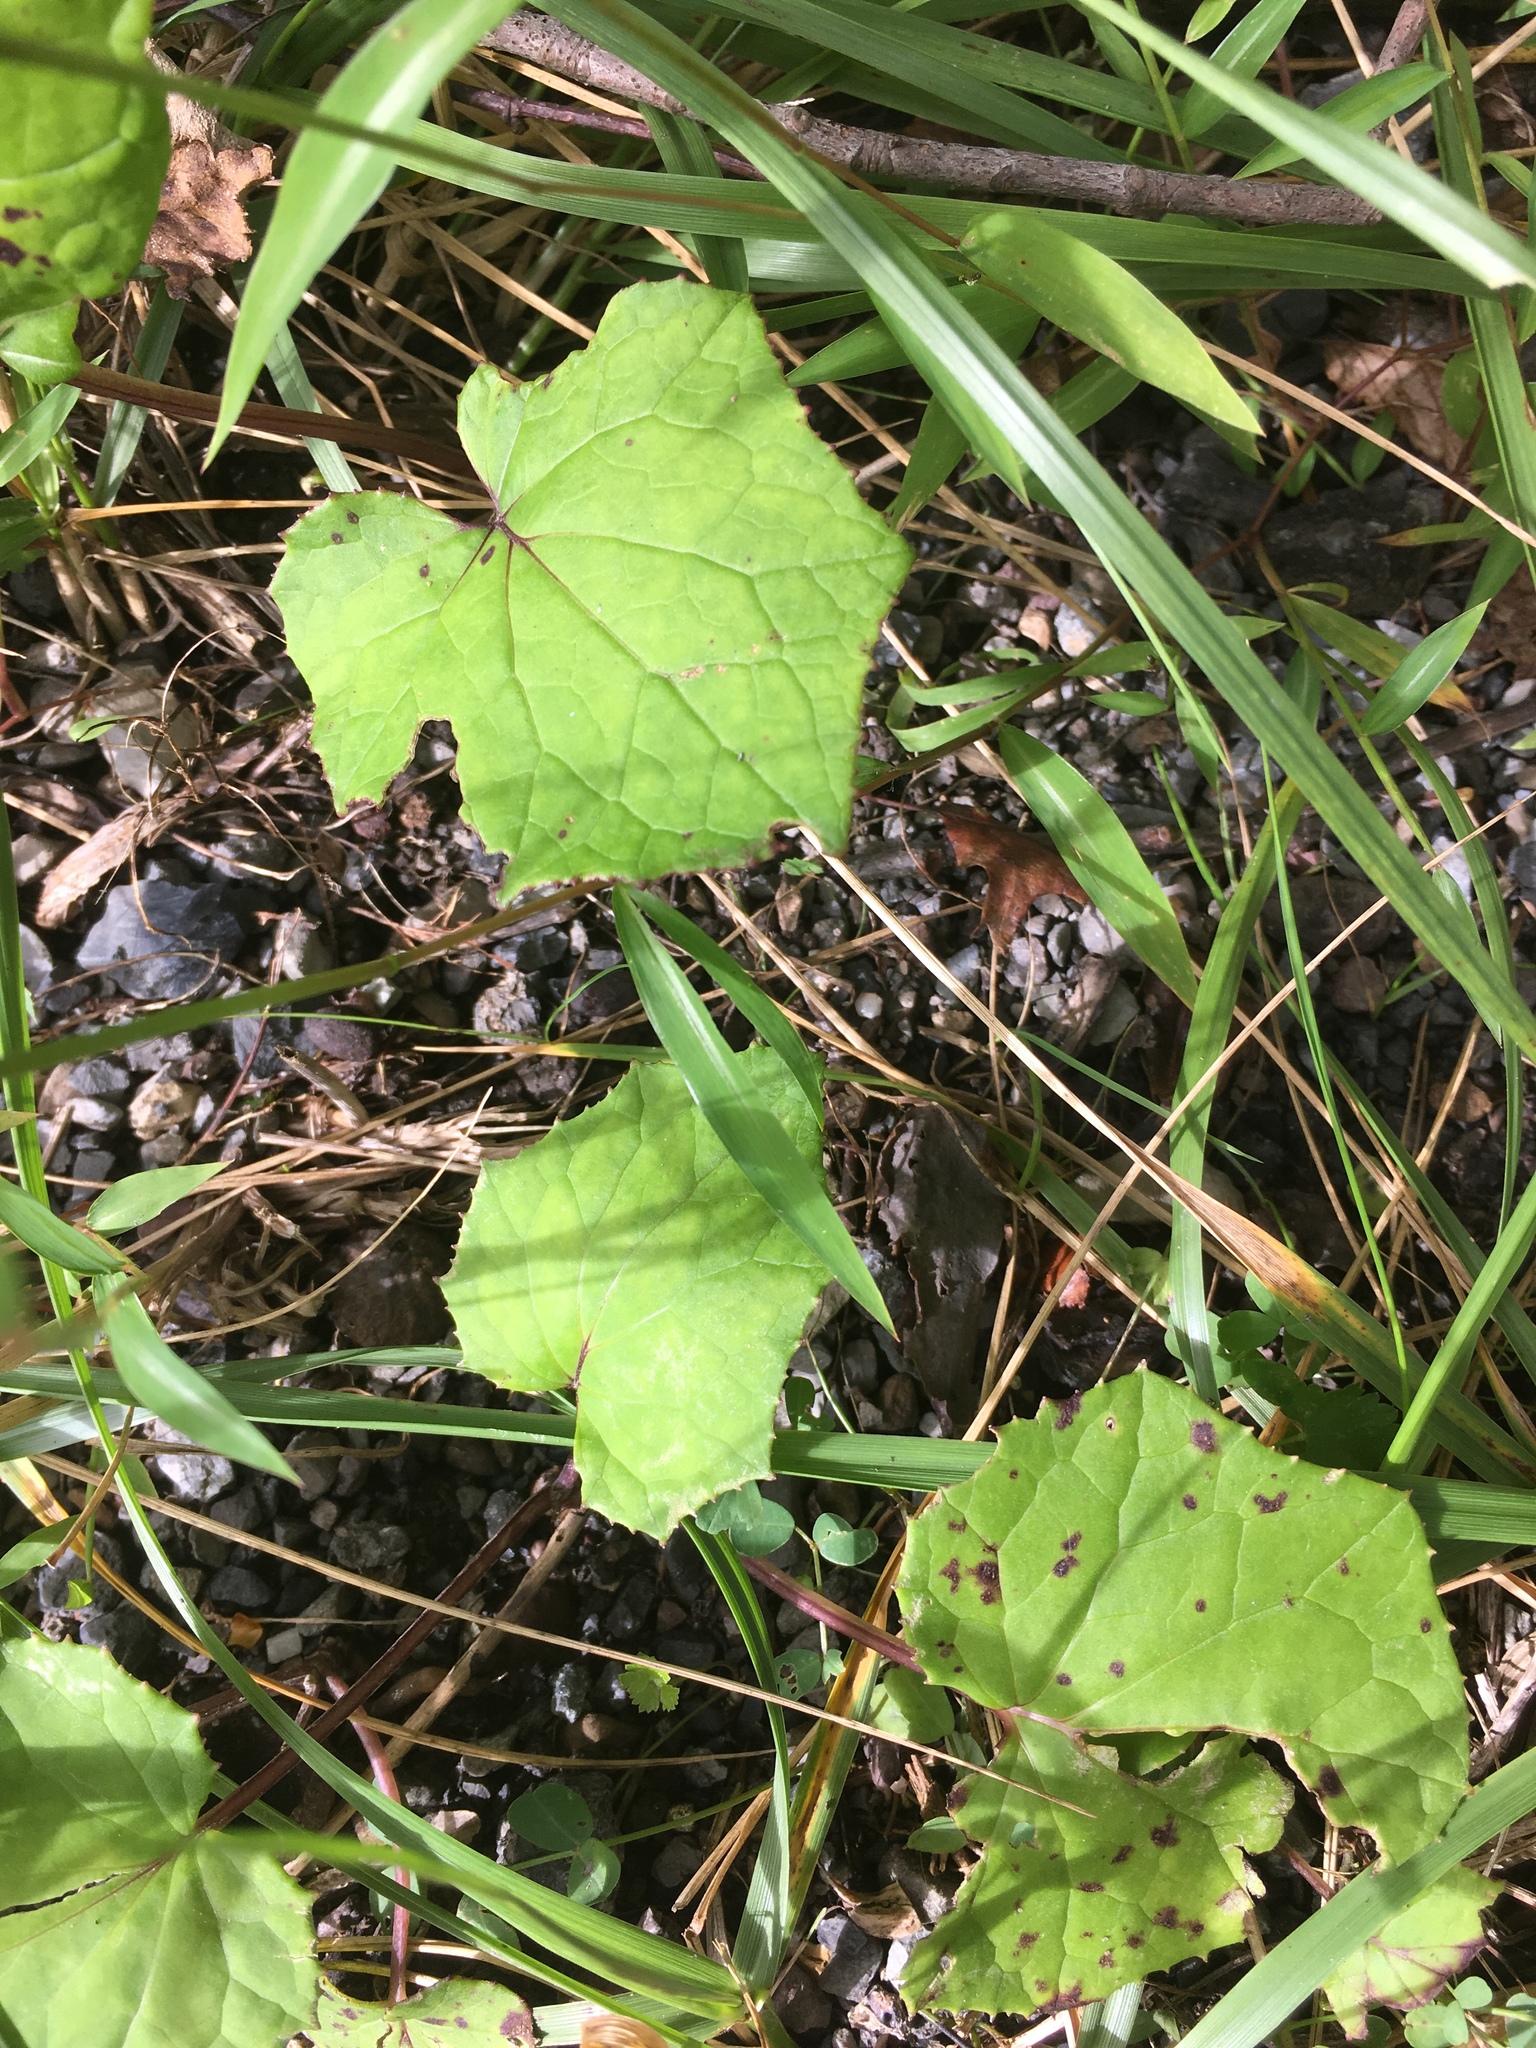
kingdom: Plantae
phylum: Tracheophyta
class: Magnoliopsida
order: Asterales
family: Asteraceae
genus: Tussilago
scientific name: Tussilago farfara
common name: Coltsfoot
